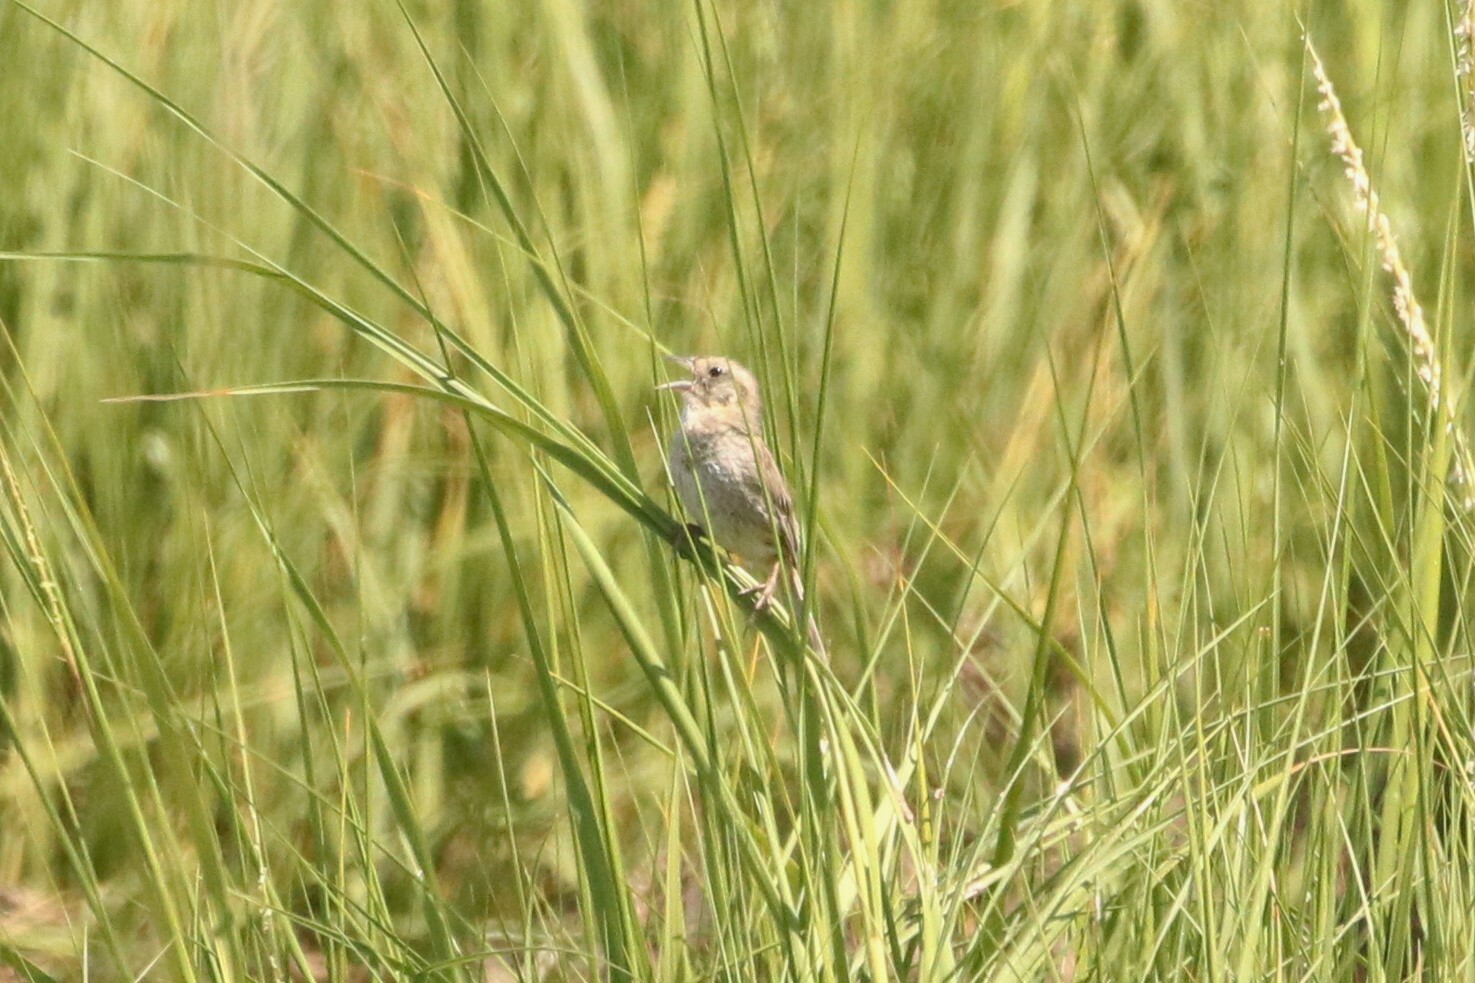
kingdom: Animalia
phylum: Chordata
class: Aves
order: Passeriformes
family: Passerellidae
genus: Ammospiza
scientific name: Ammospiza nelsoni
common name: Nelson's sparrow
